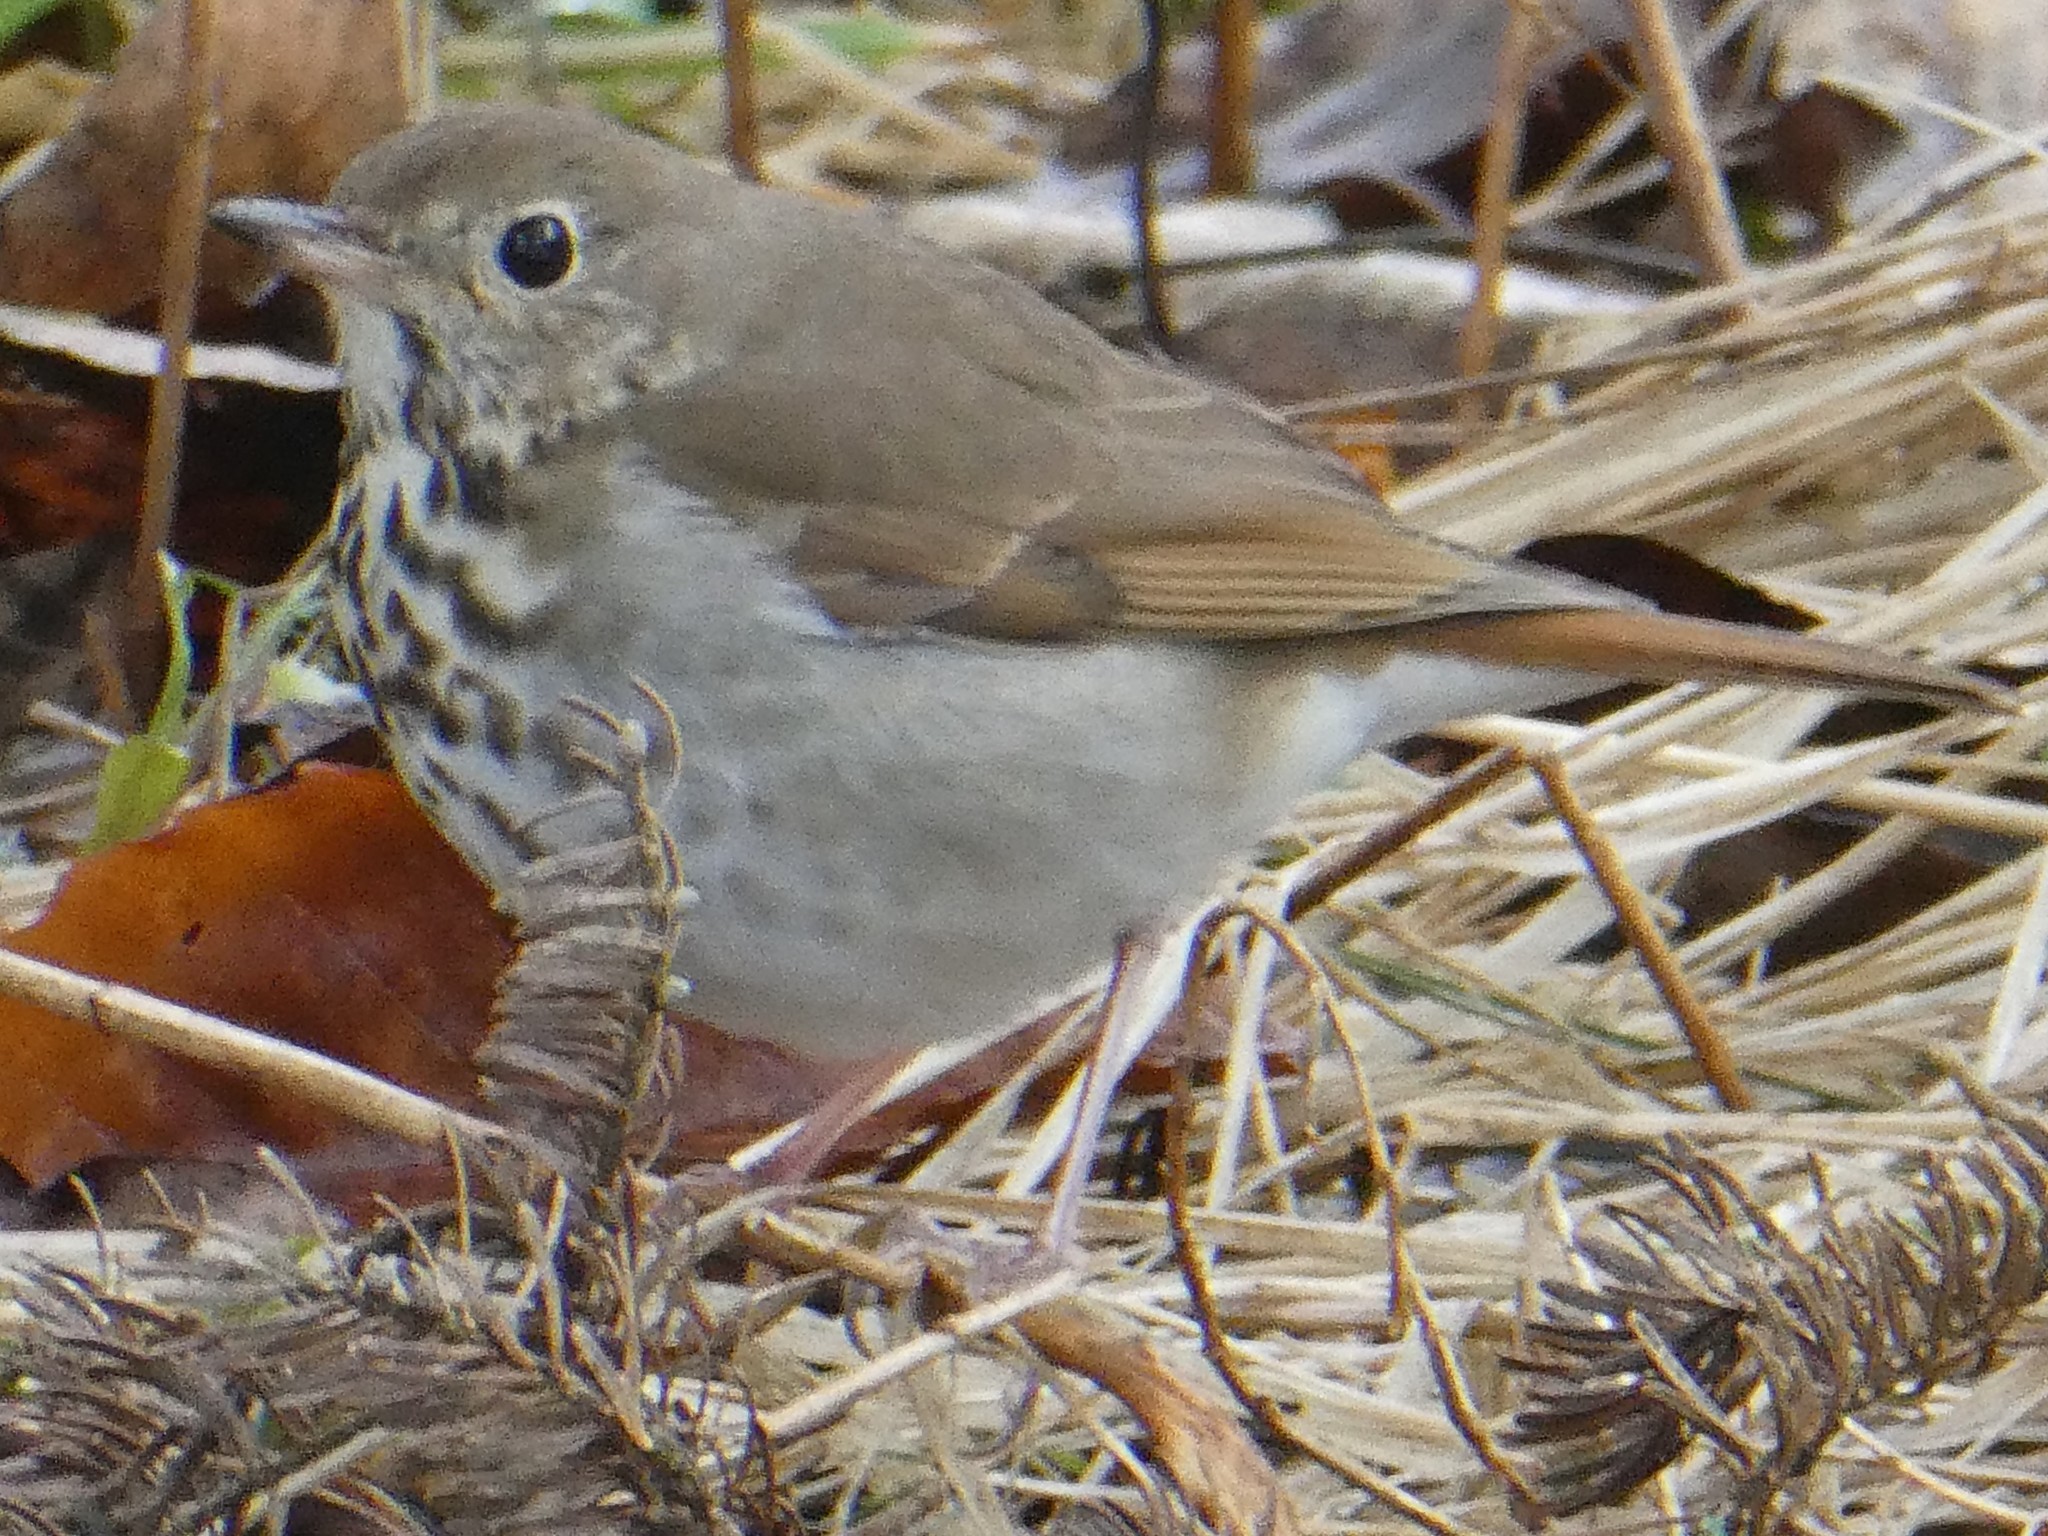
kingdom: Animalia
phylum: Chordata
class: Aves
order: Passeriformes
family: Turdidae
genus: Catharus
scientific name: Catharus guttatus
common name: Hermit thrush
